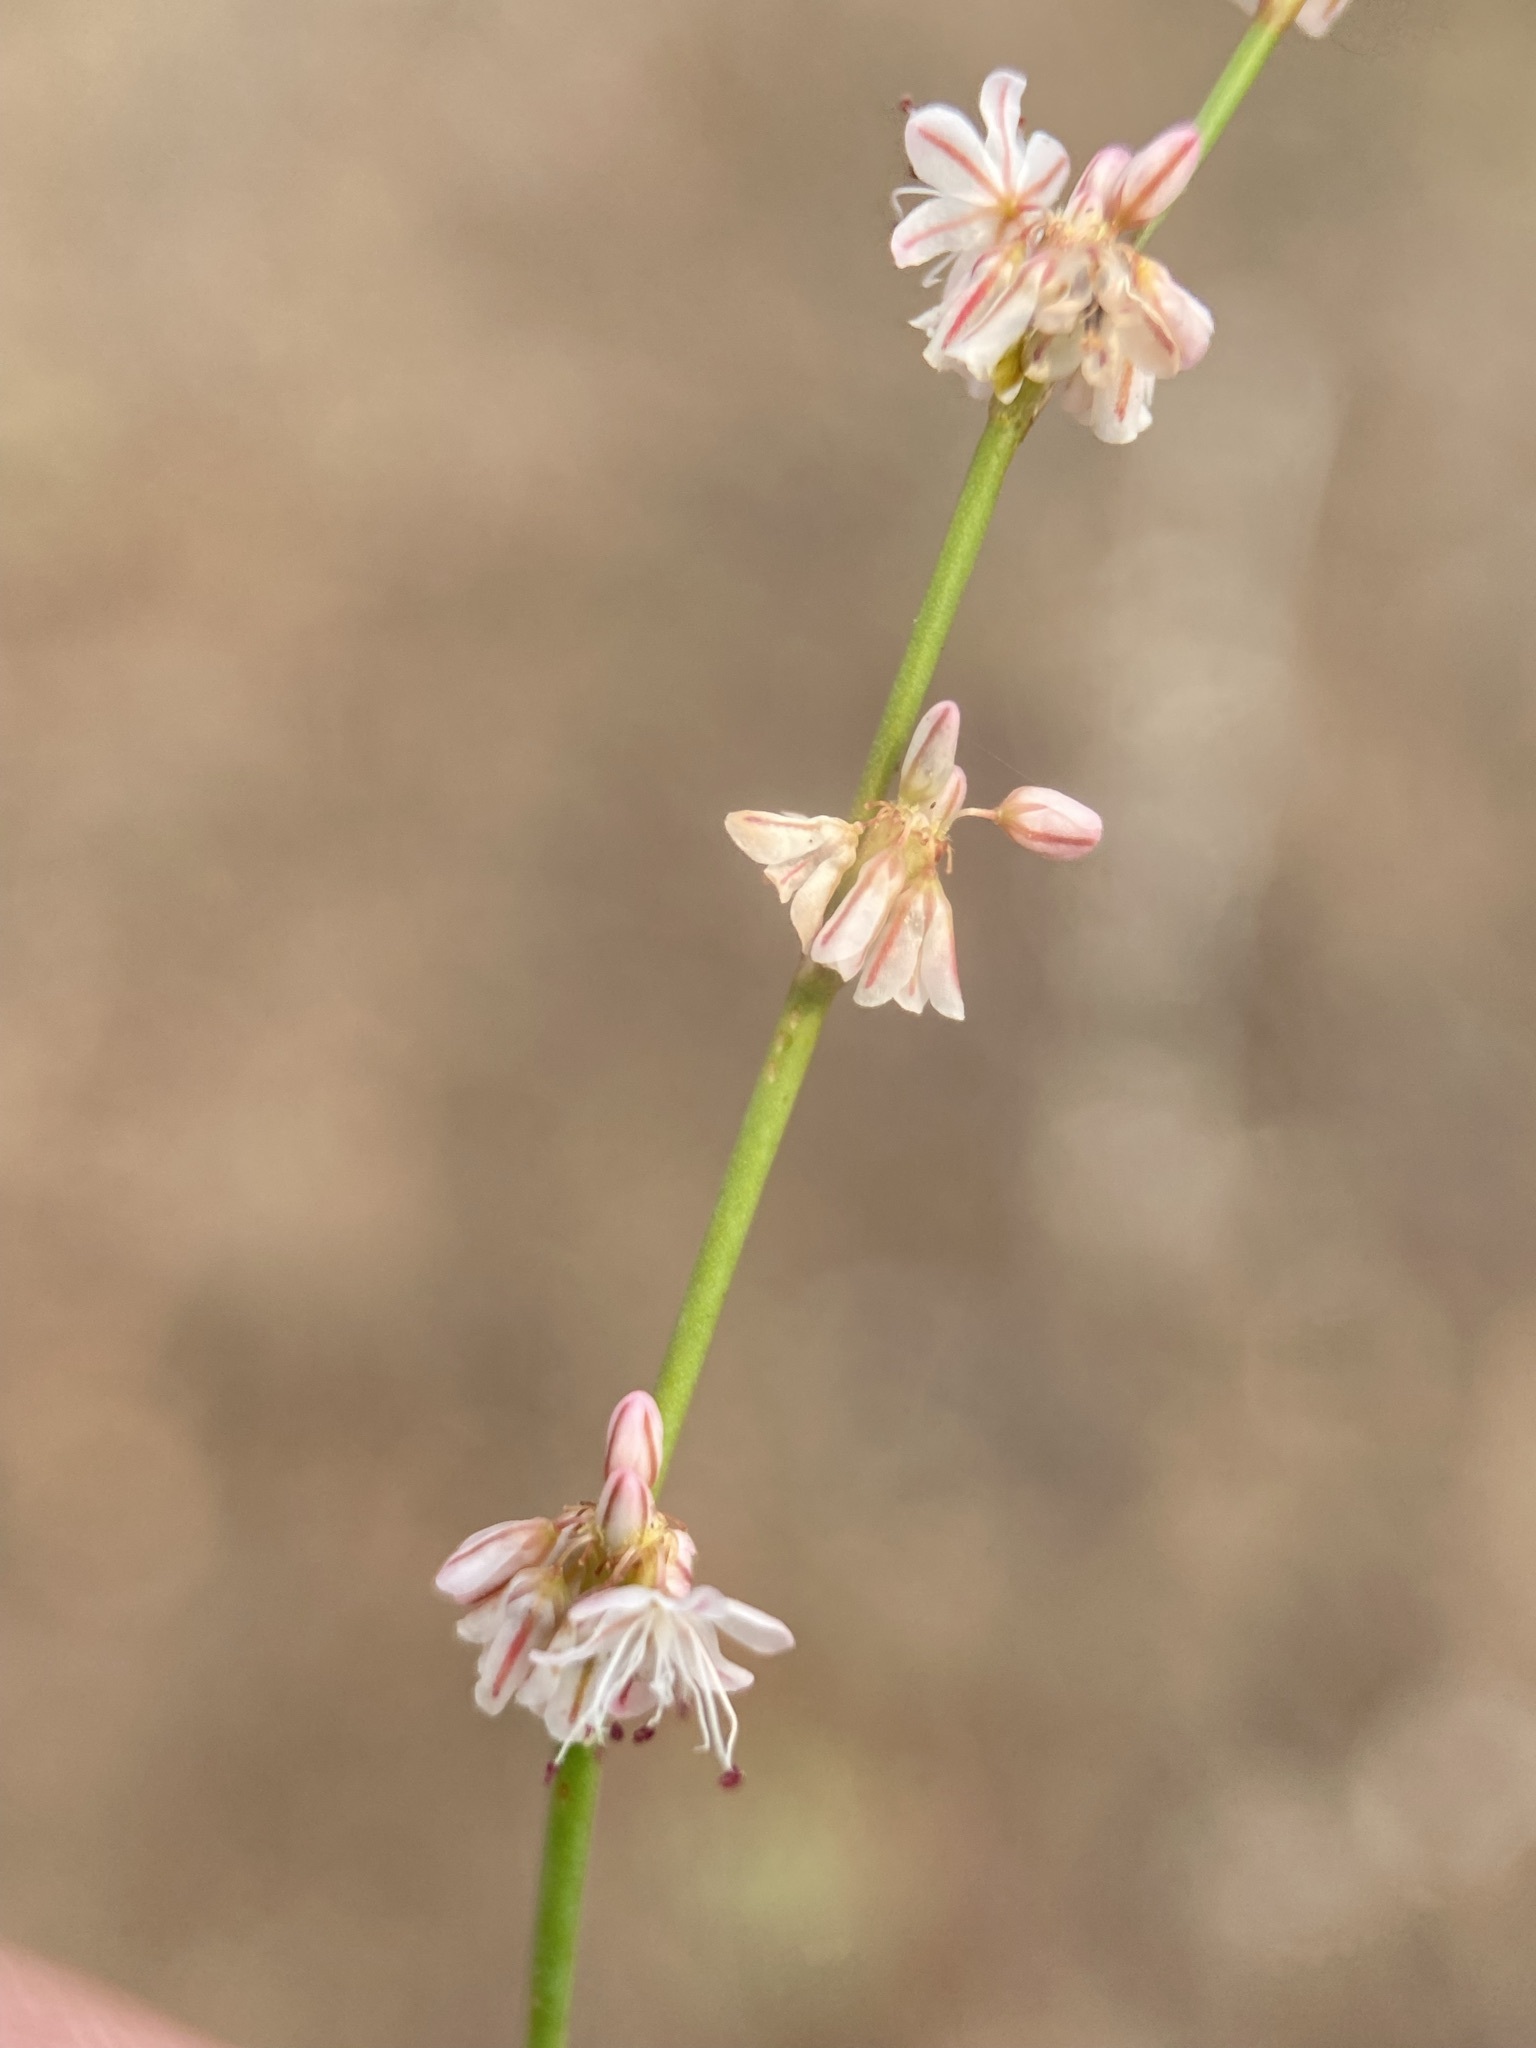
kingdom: Plantae
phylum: Tracheophyta
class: Magnoliopsida
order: Caryophyllales
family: Polygonaceae
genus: Eriogonum
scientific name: Eriogonum vimineum
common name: Wicker buckwheat
